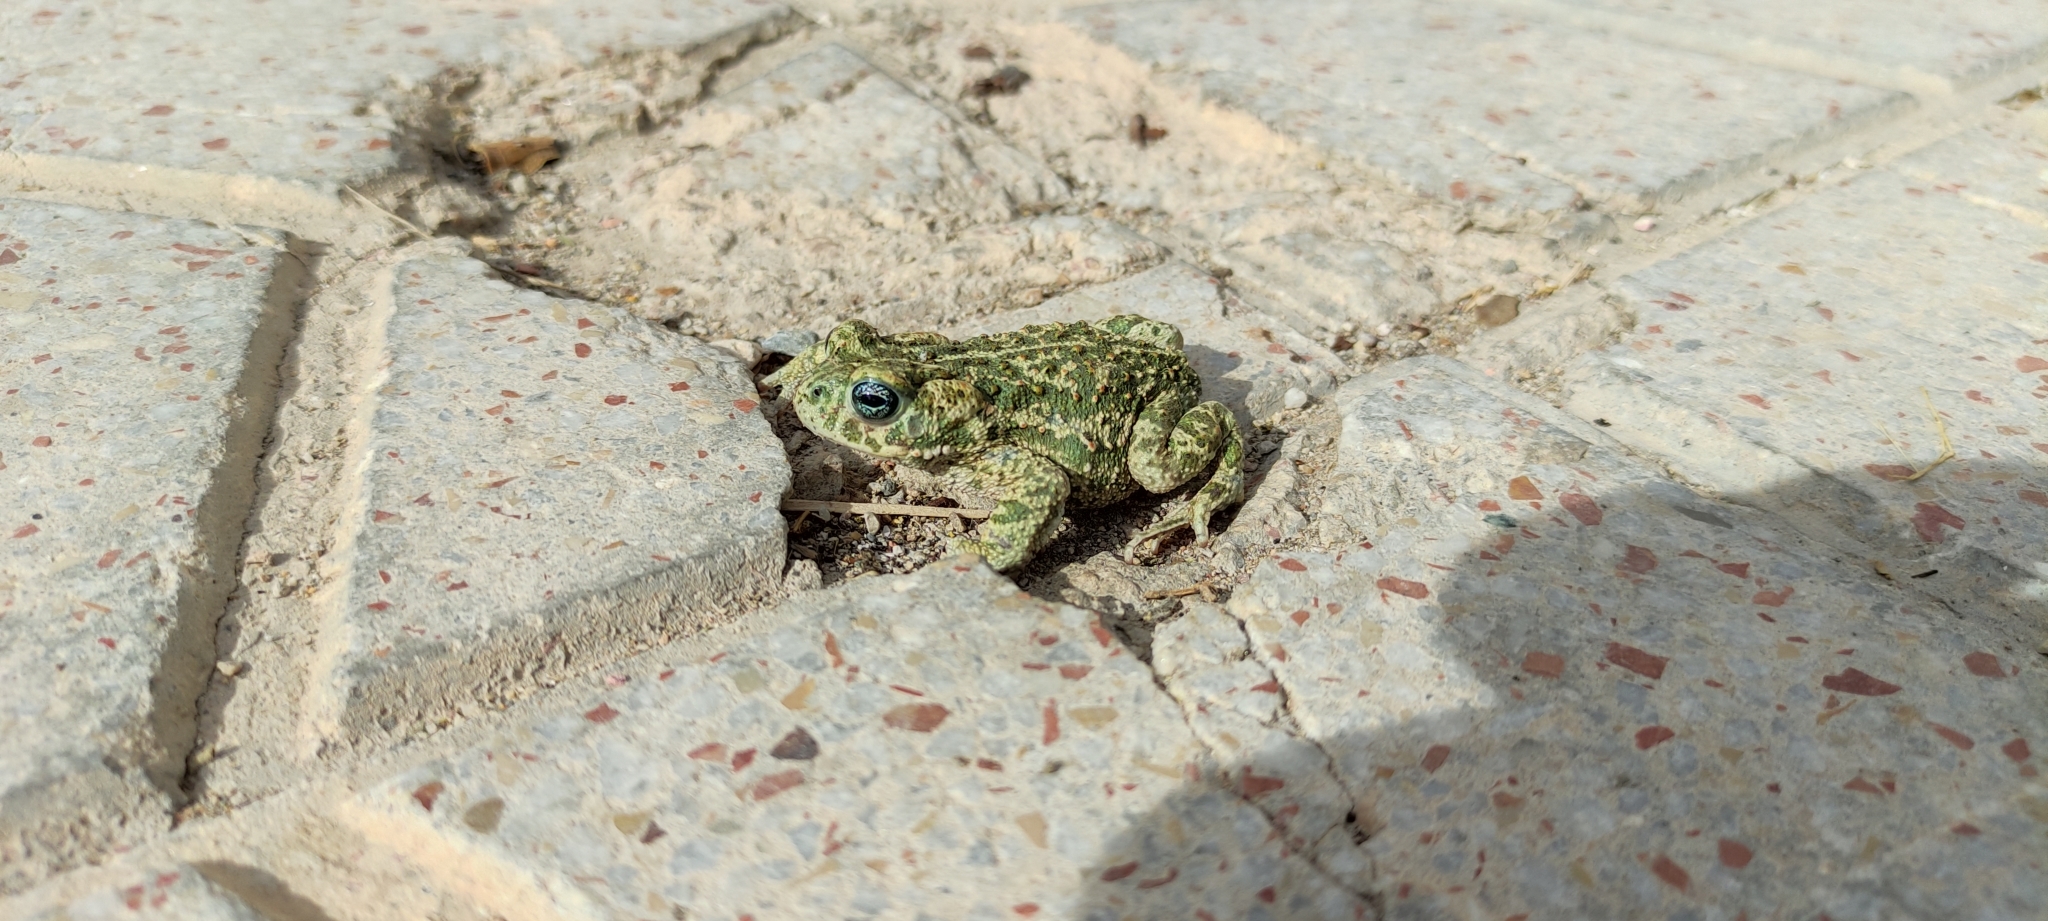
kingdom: Animalia
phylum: Chordata
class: Amphibia
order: Anura
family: Bufonidae
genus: Epidalea
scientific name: Epidalea calamita
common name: Natterjack toad
